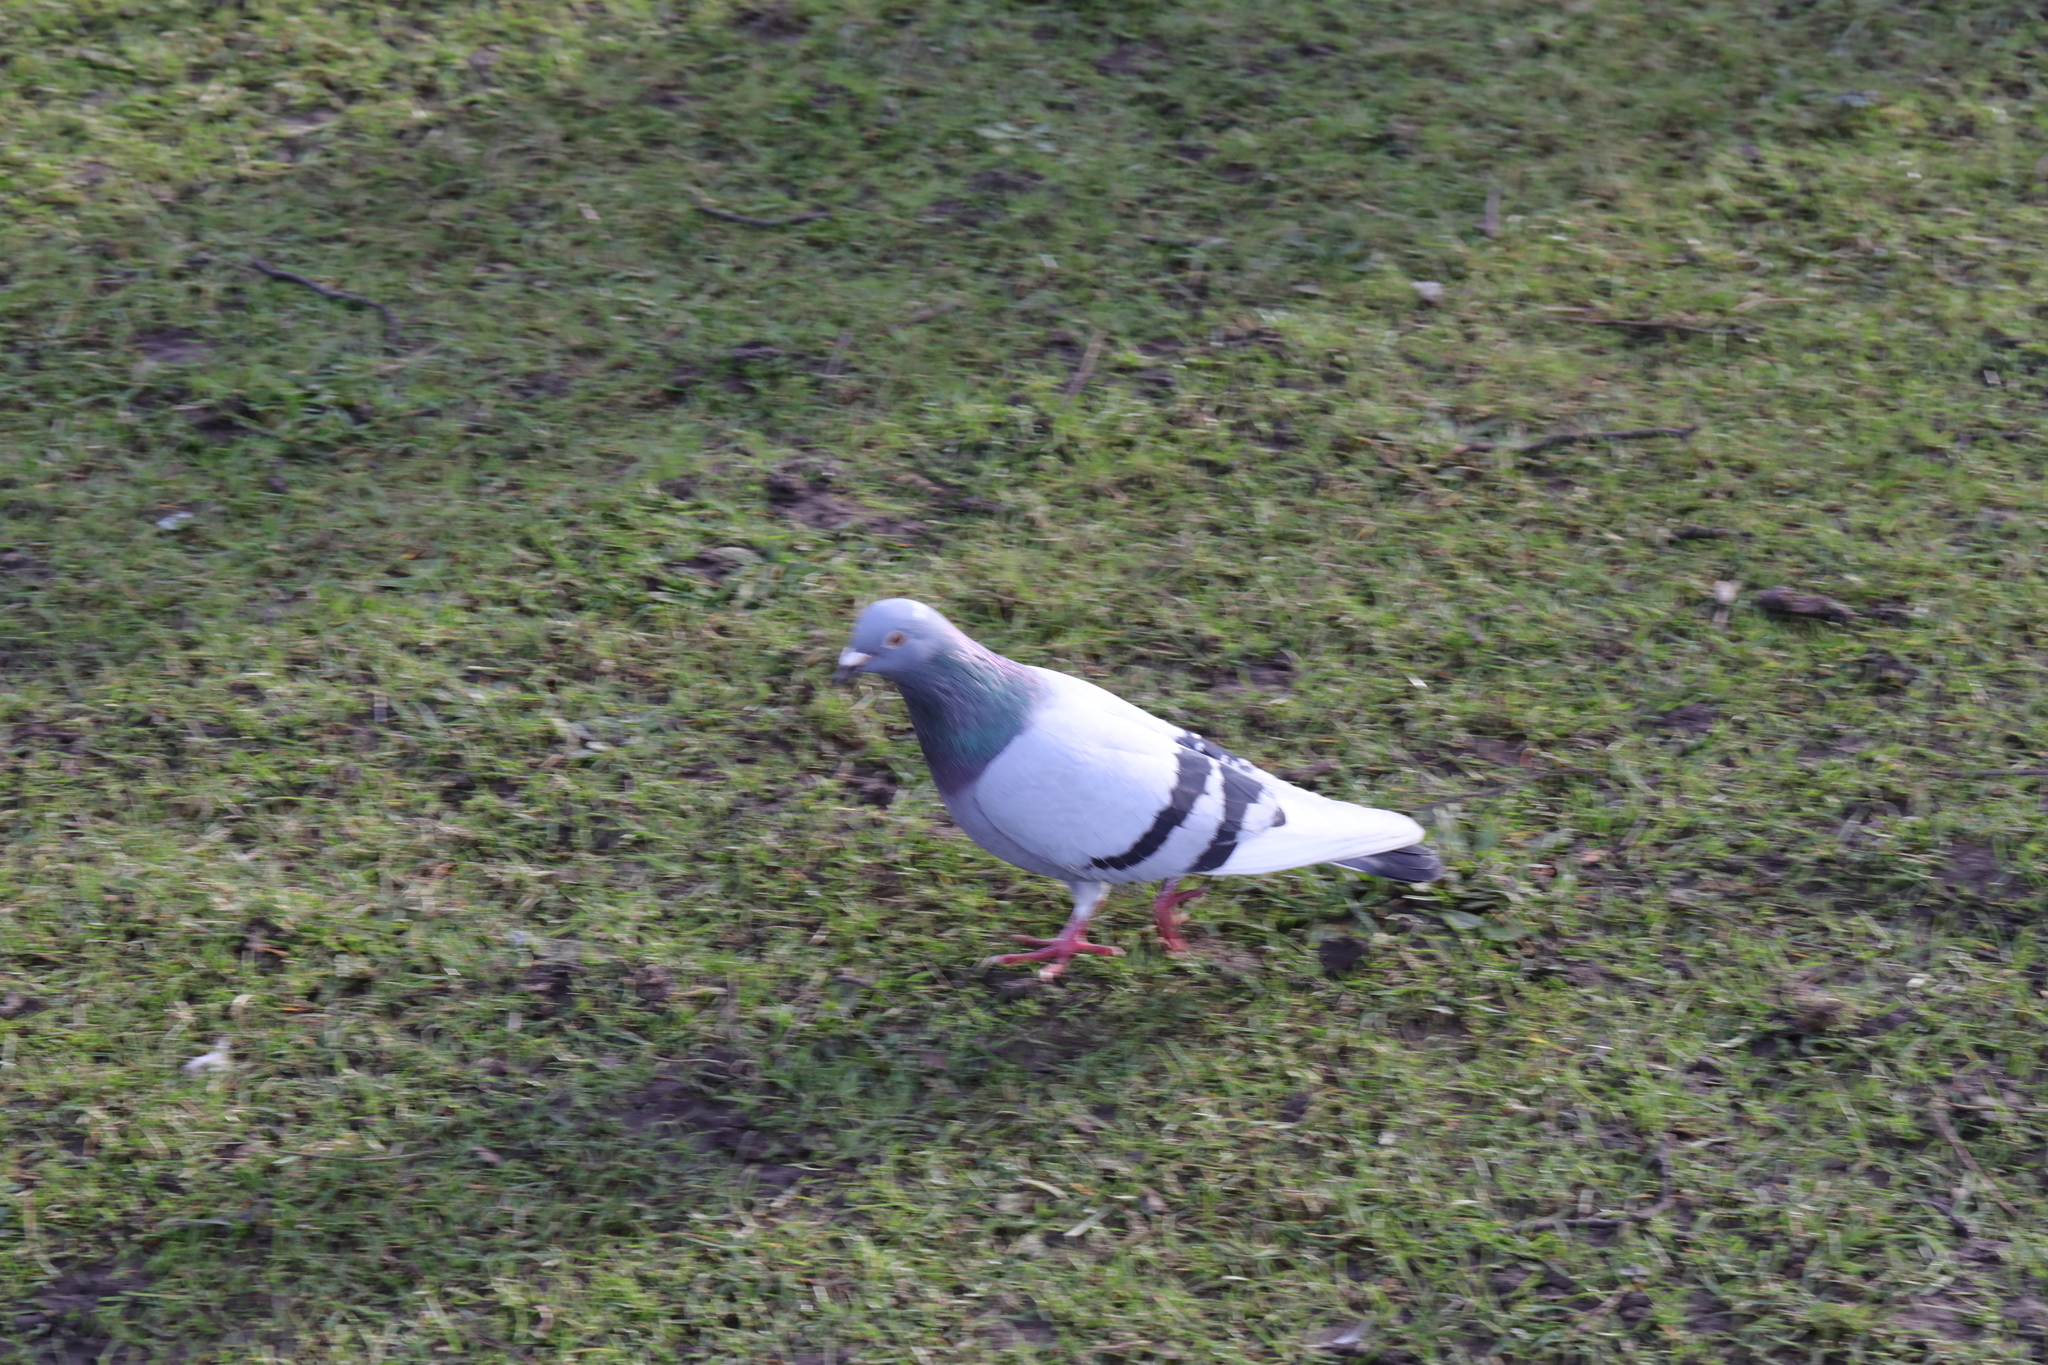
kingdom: Animalia
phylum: Chordata
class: Aves
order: Columbiformes
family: Columbidae
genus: Columba
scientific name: Columba livia
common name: Rock pigeon
